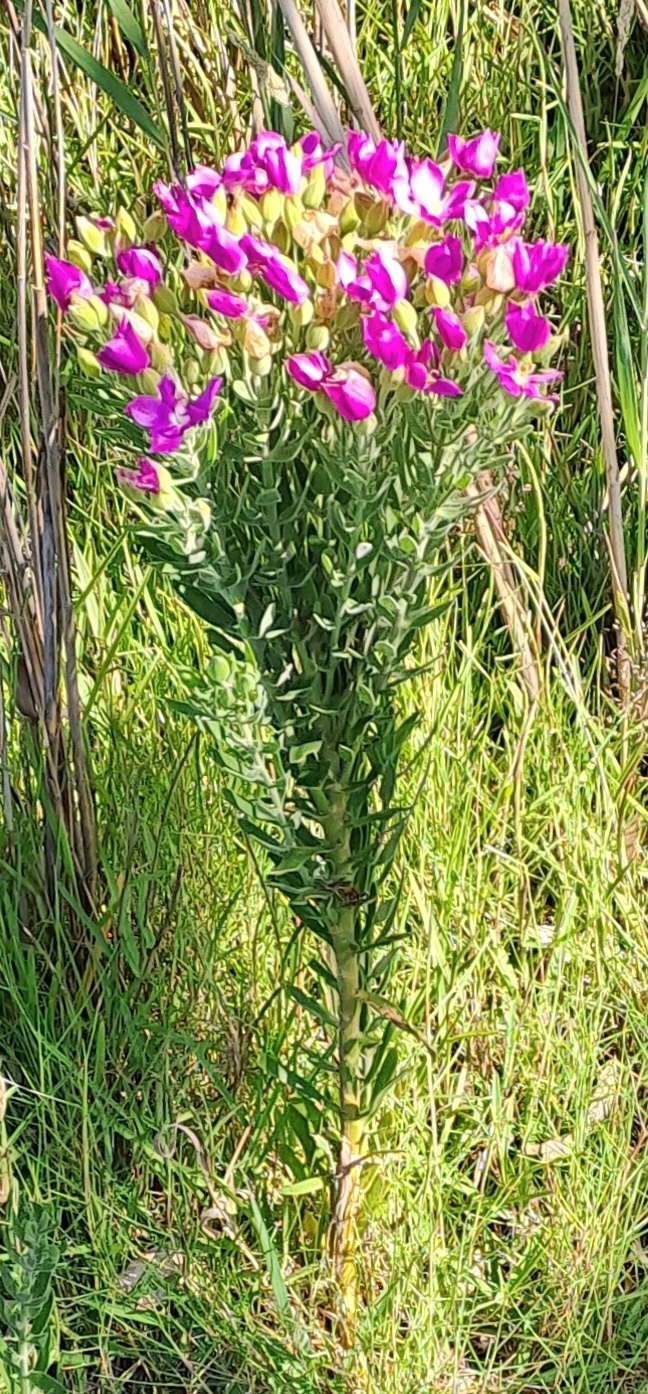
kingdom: Plantae
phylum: Tracheophyta
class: Magnoliopsida
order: Gentianales
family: Gentianaceae
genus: Orphium
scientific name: Orphium frutescens
